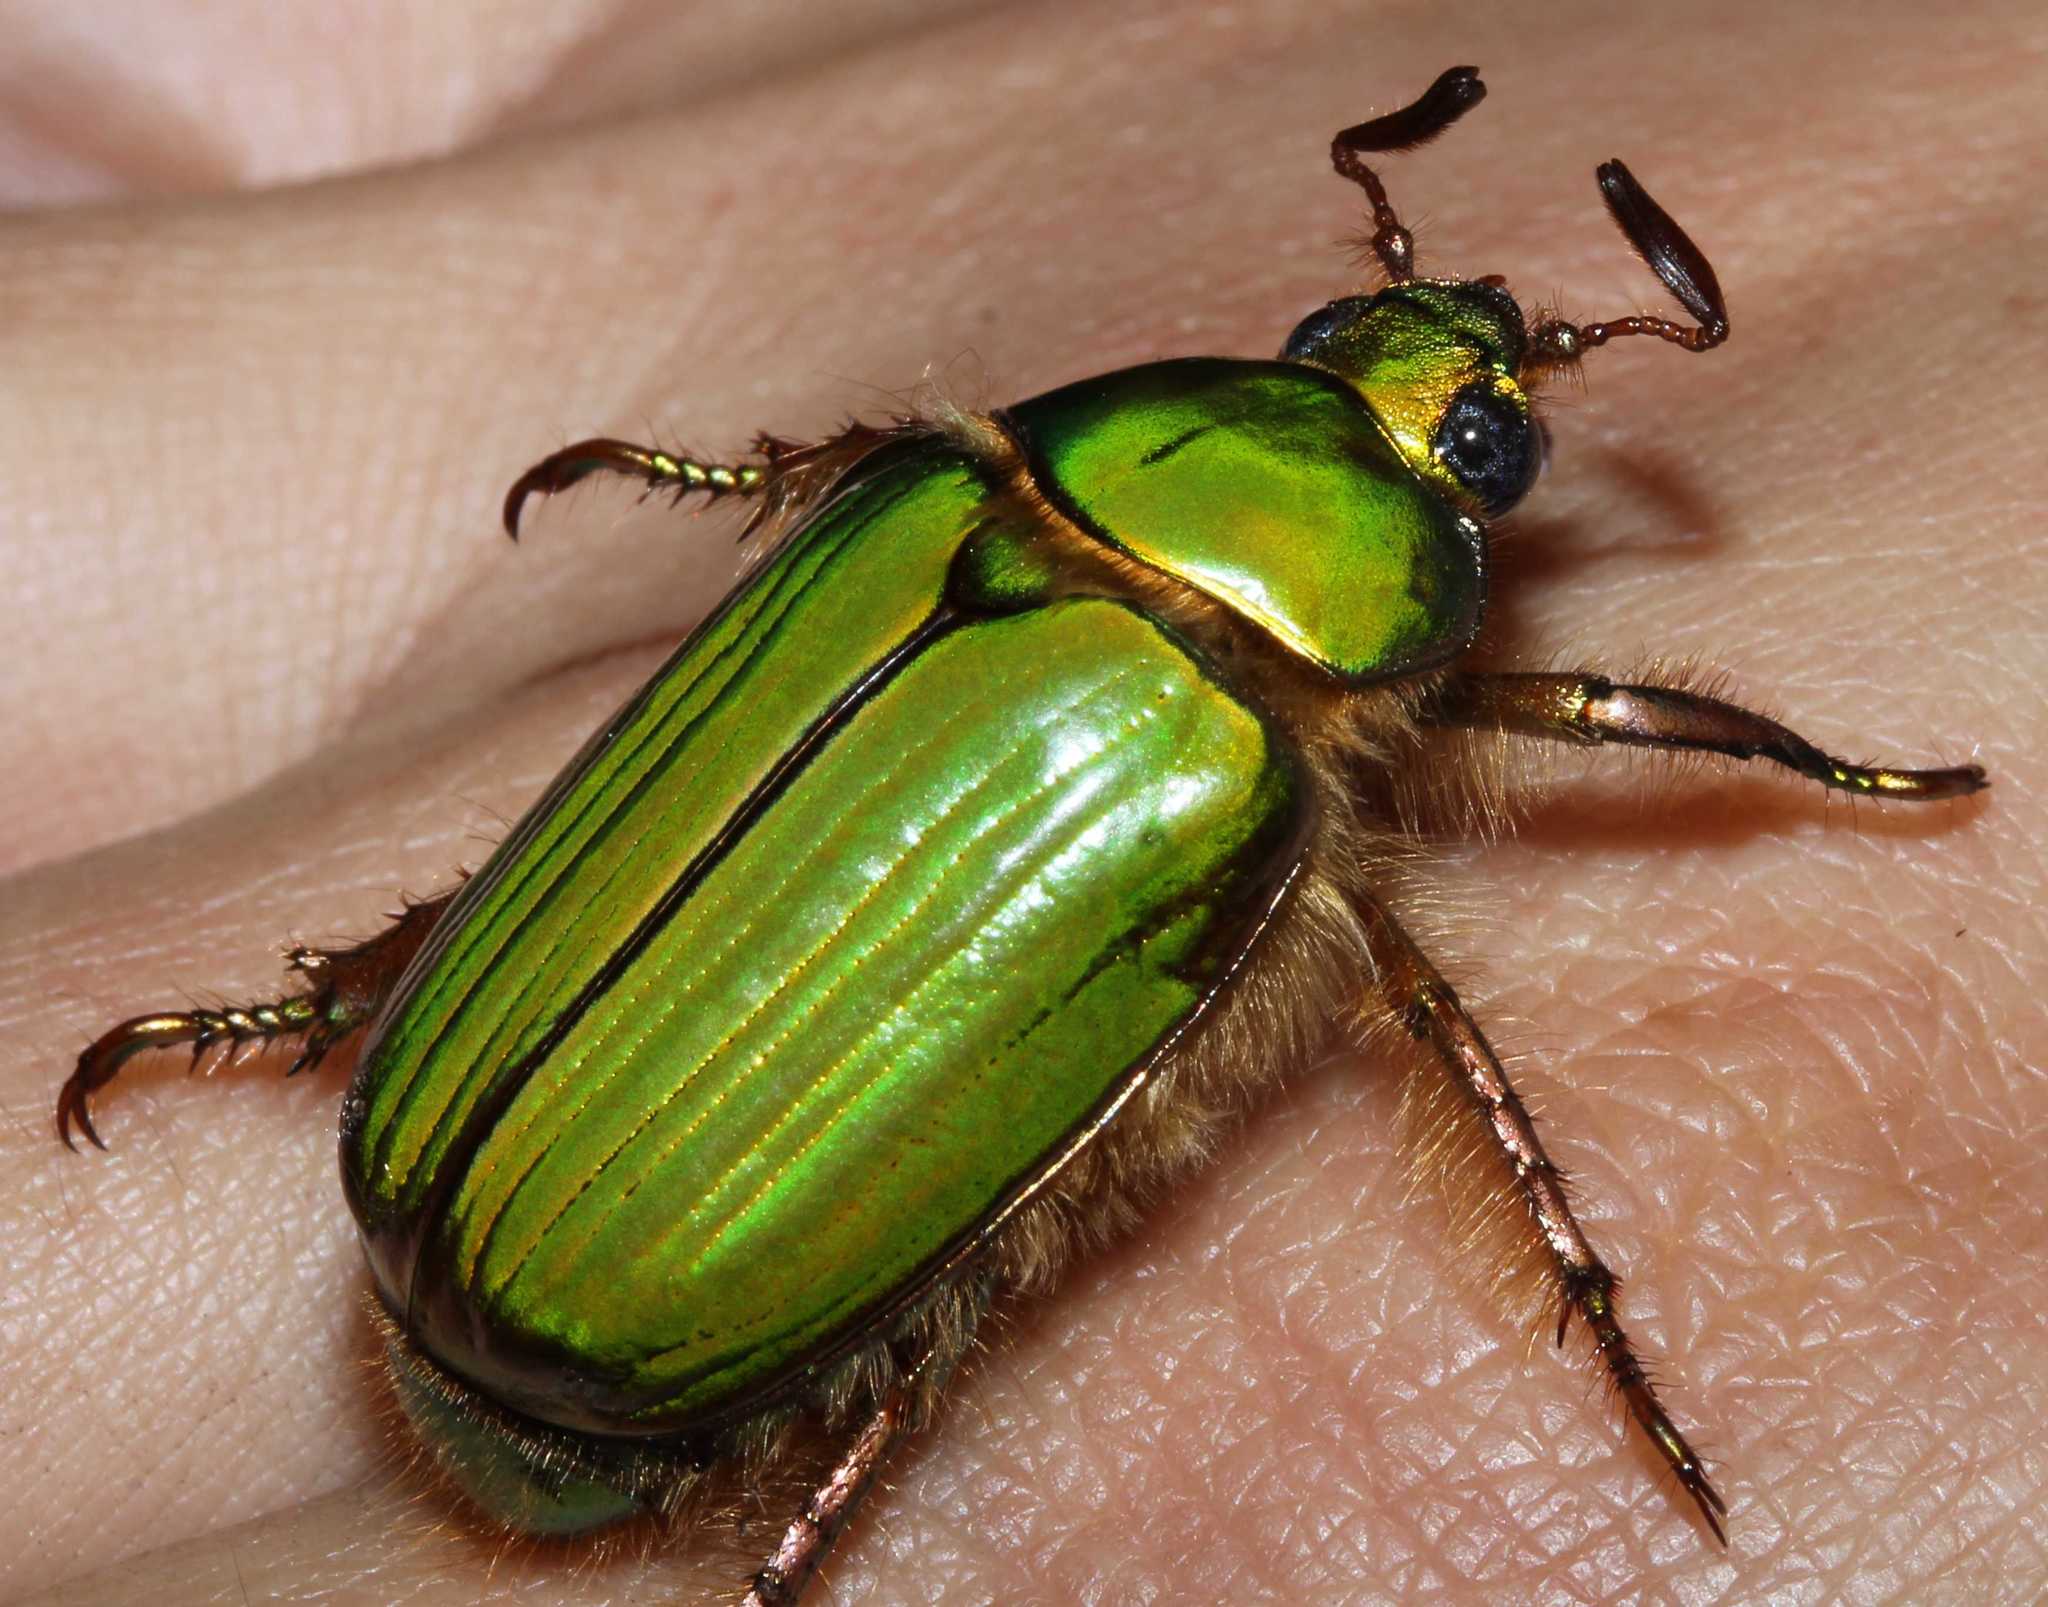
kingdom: Animalia
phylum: Arthropoda
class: Insecta
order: Coleoptera
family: Scarabaeidae
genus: Chrysina
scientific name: Chrysina
